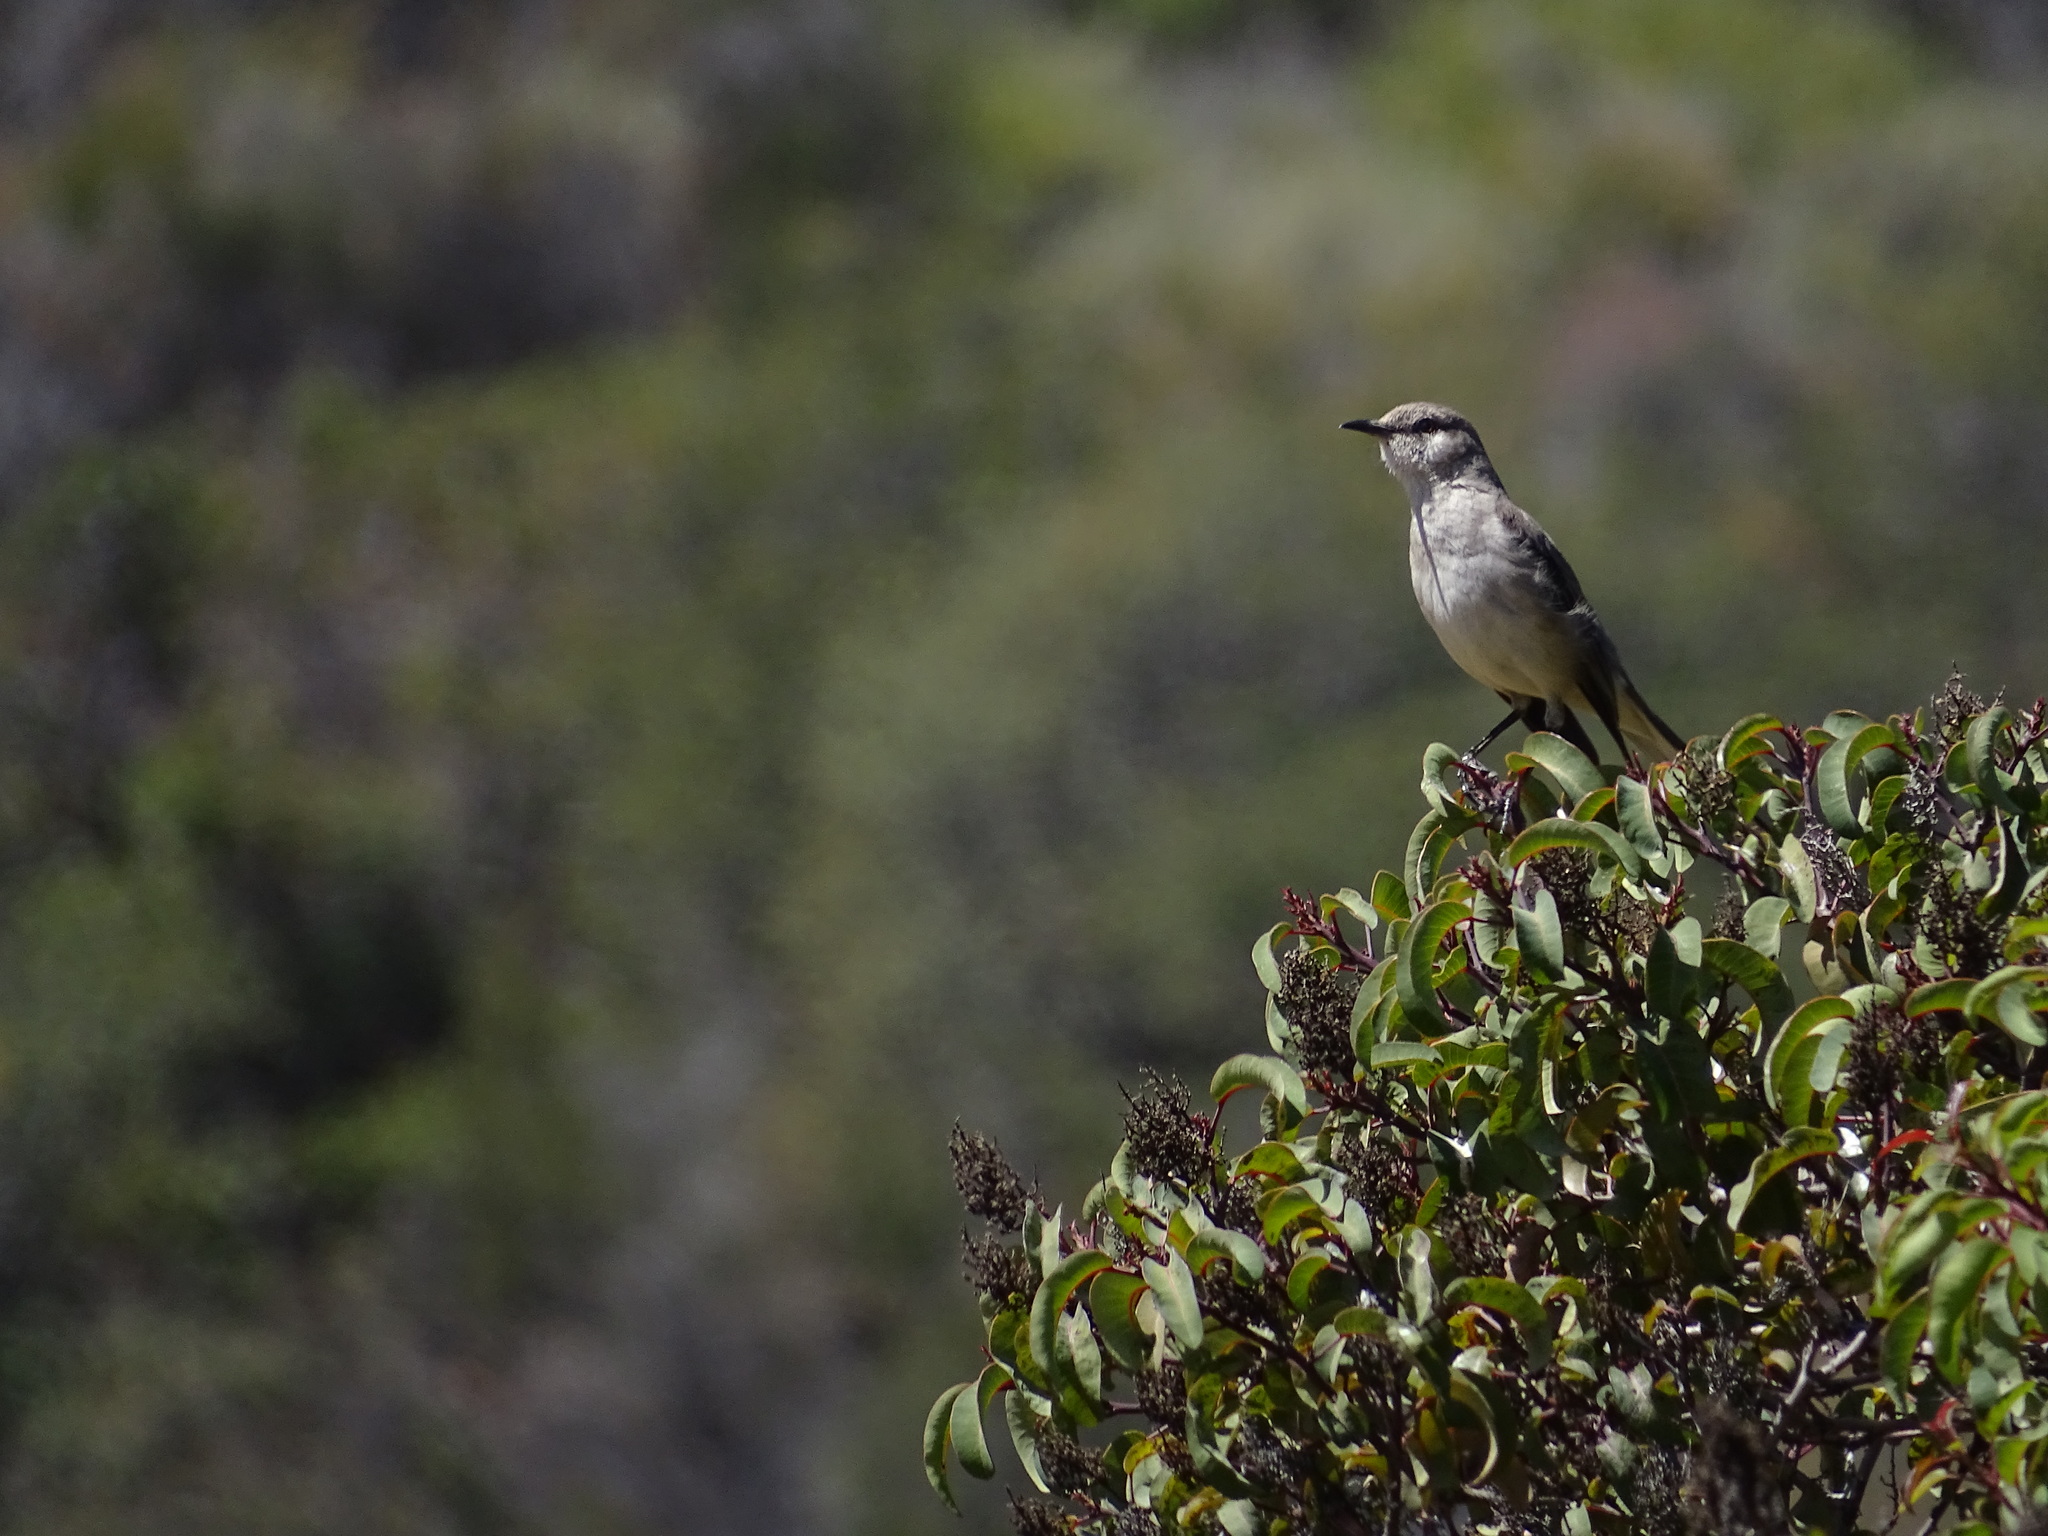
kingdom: Animalia
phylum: Chordata
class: Aves
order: Passeriformes
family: Mimidae
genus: Mimus
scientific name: Mimus polyglottos
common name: Northern mockingbird
